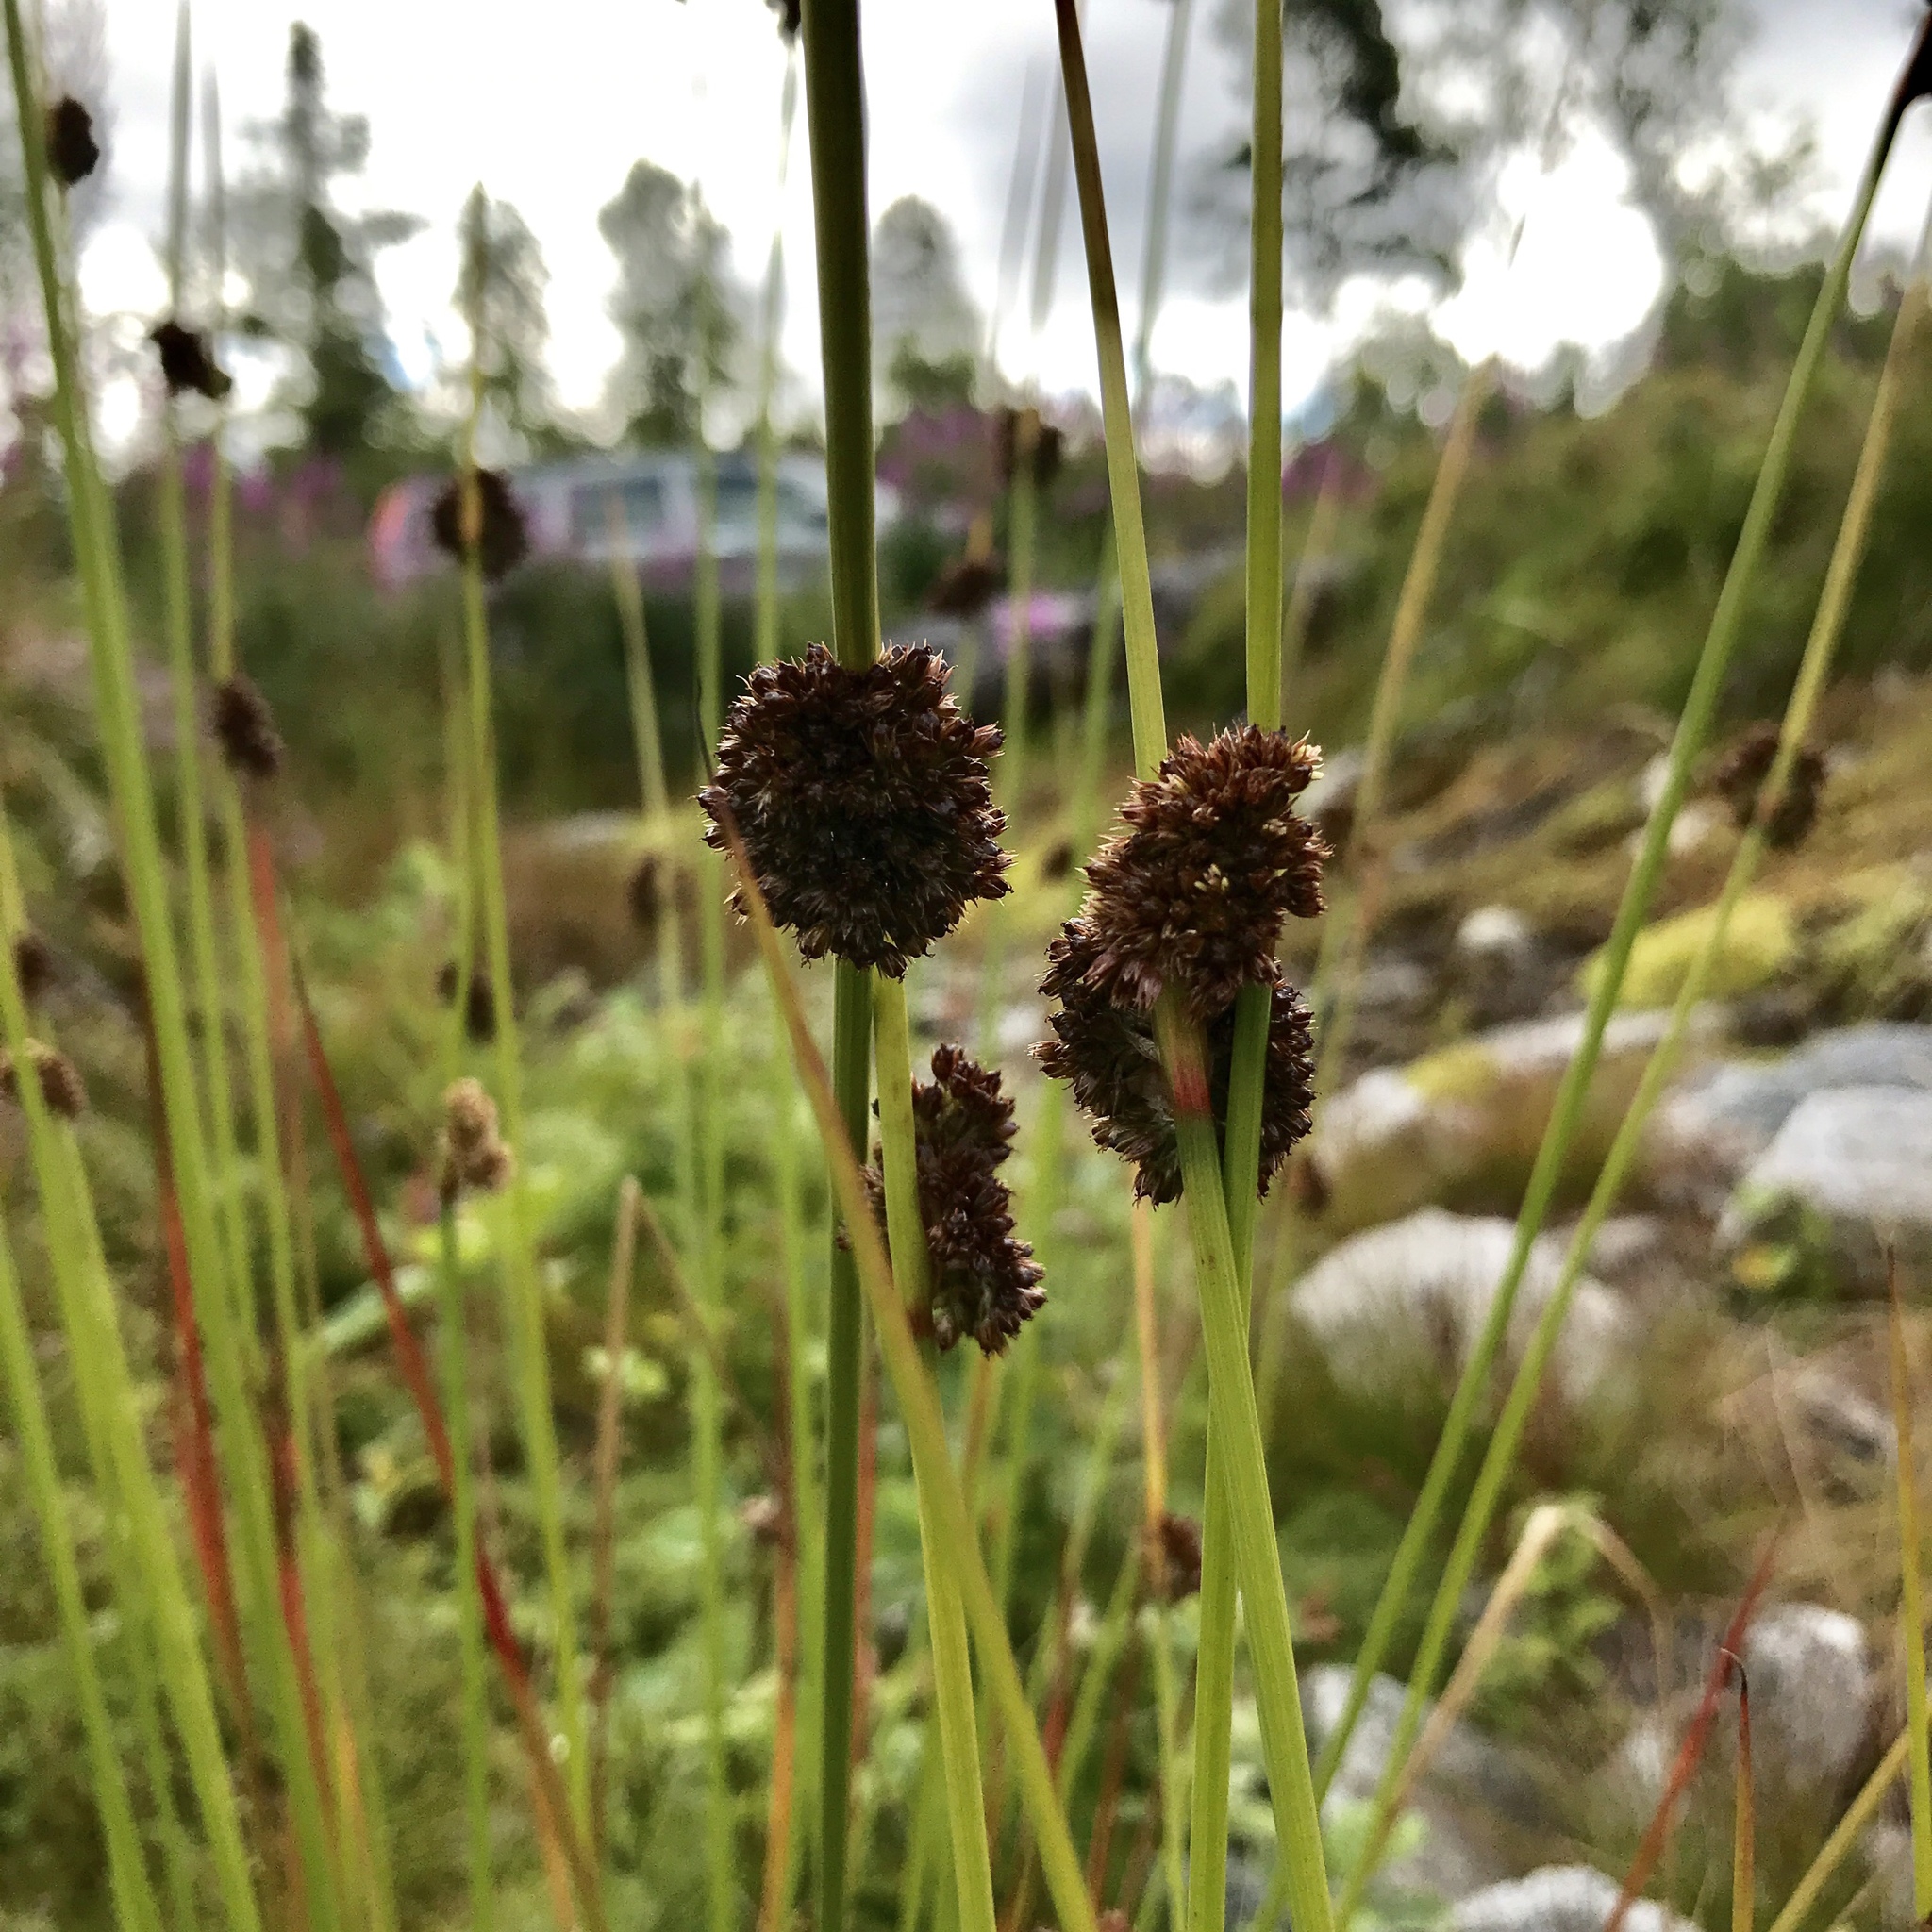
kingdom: Plantae
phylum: Tracheophyta
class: Liliopsida
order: Poales
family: Juncaceae
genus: Juncus
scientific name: Juncus conglomeratus
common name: Compact rush
